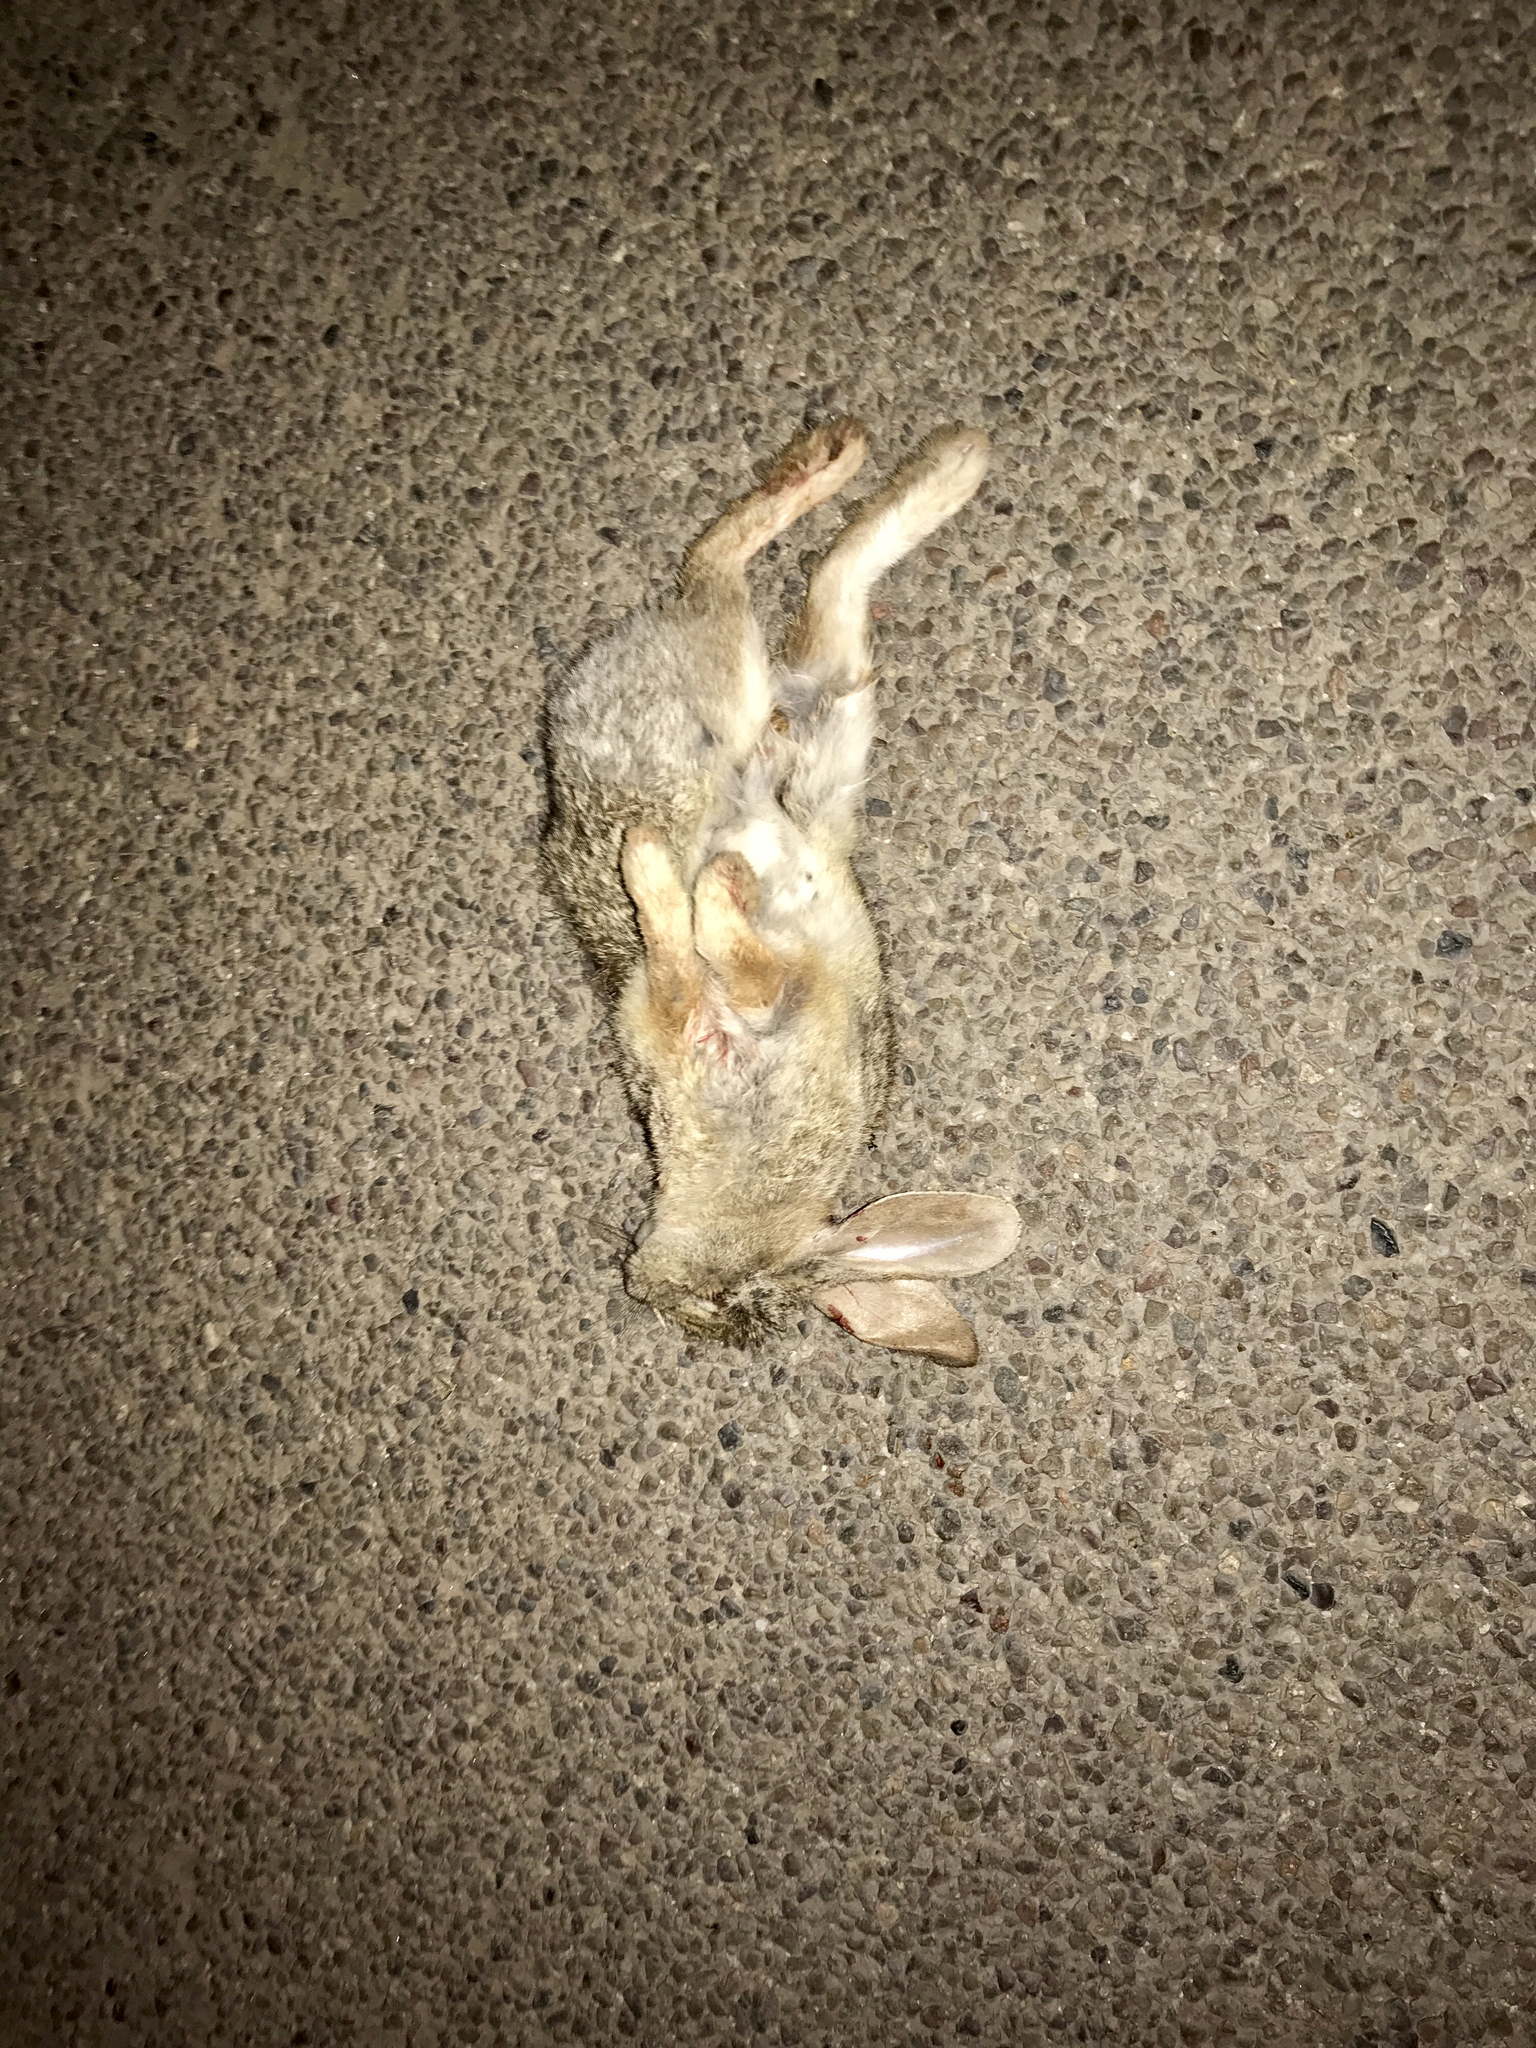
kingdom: Animalia
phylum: Chordata
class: Mammalia
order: Lagomorpha
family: Leporidae
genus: Sylvilagus
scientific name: Sylvilagus audubonii
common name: Desert cottontail
